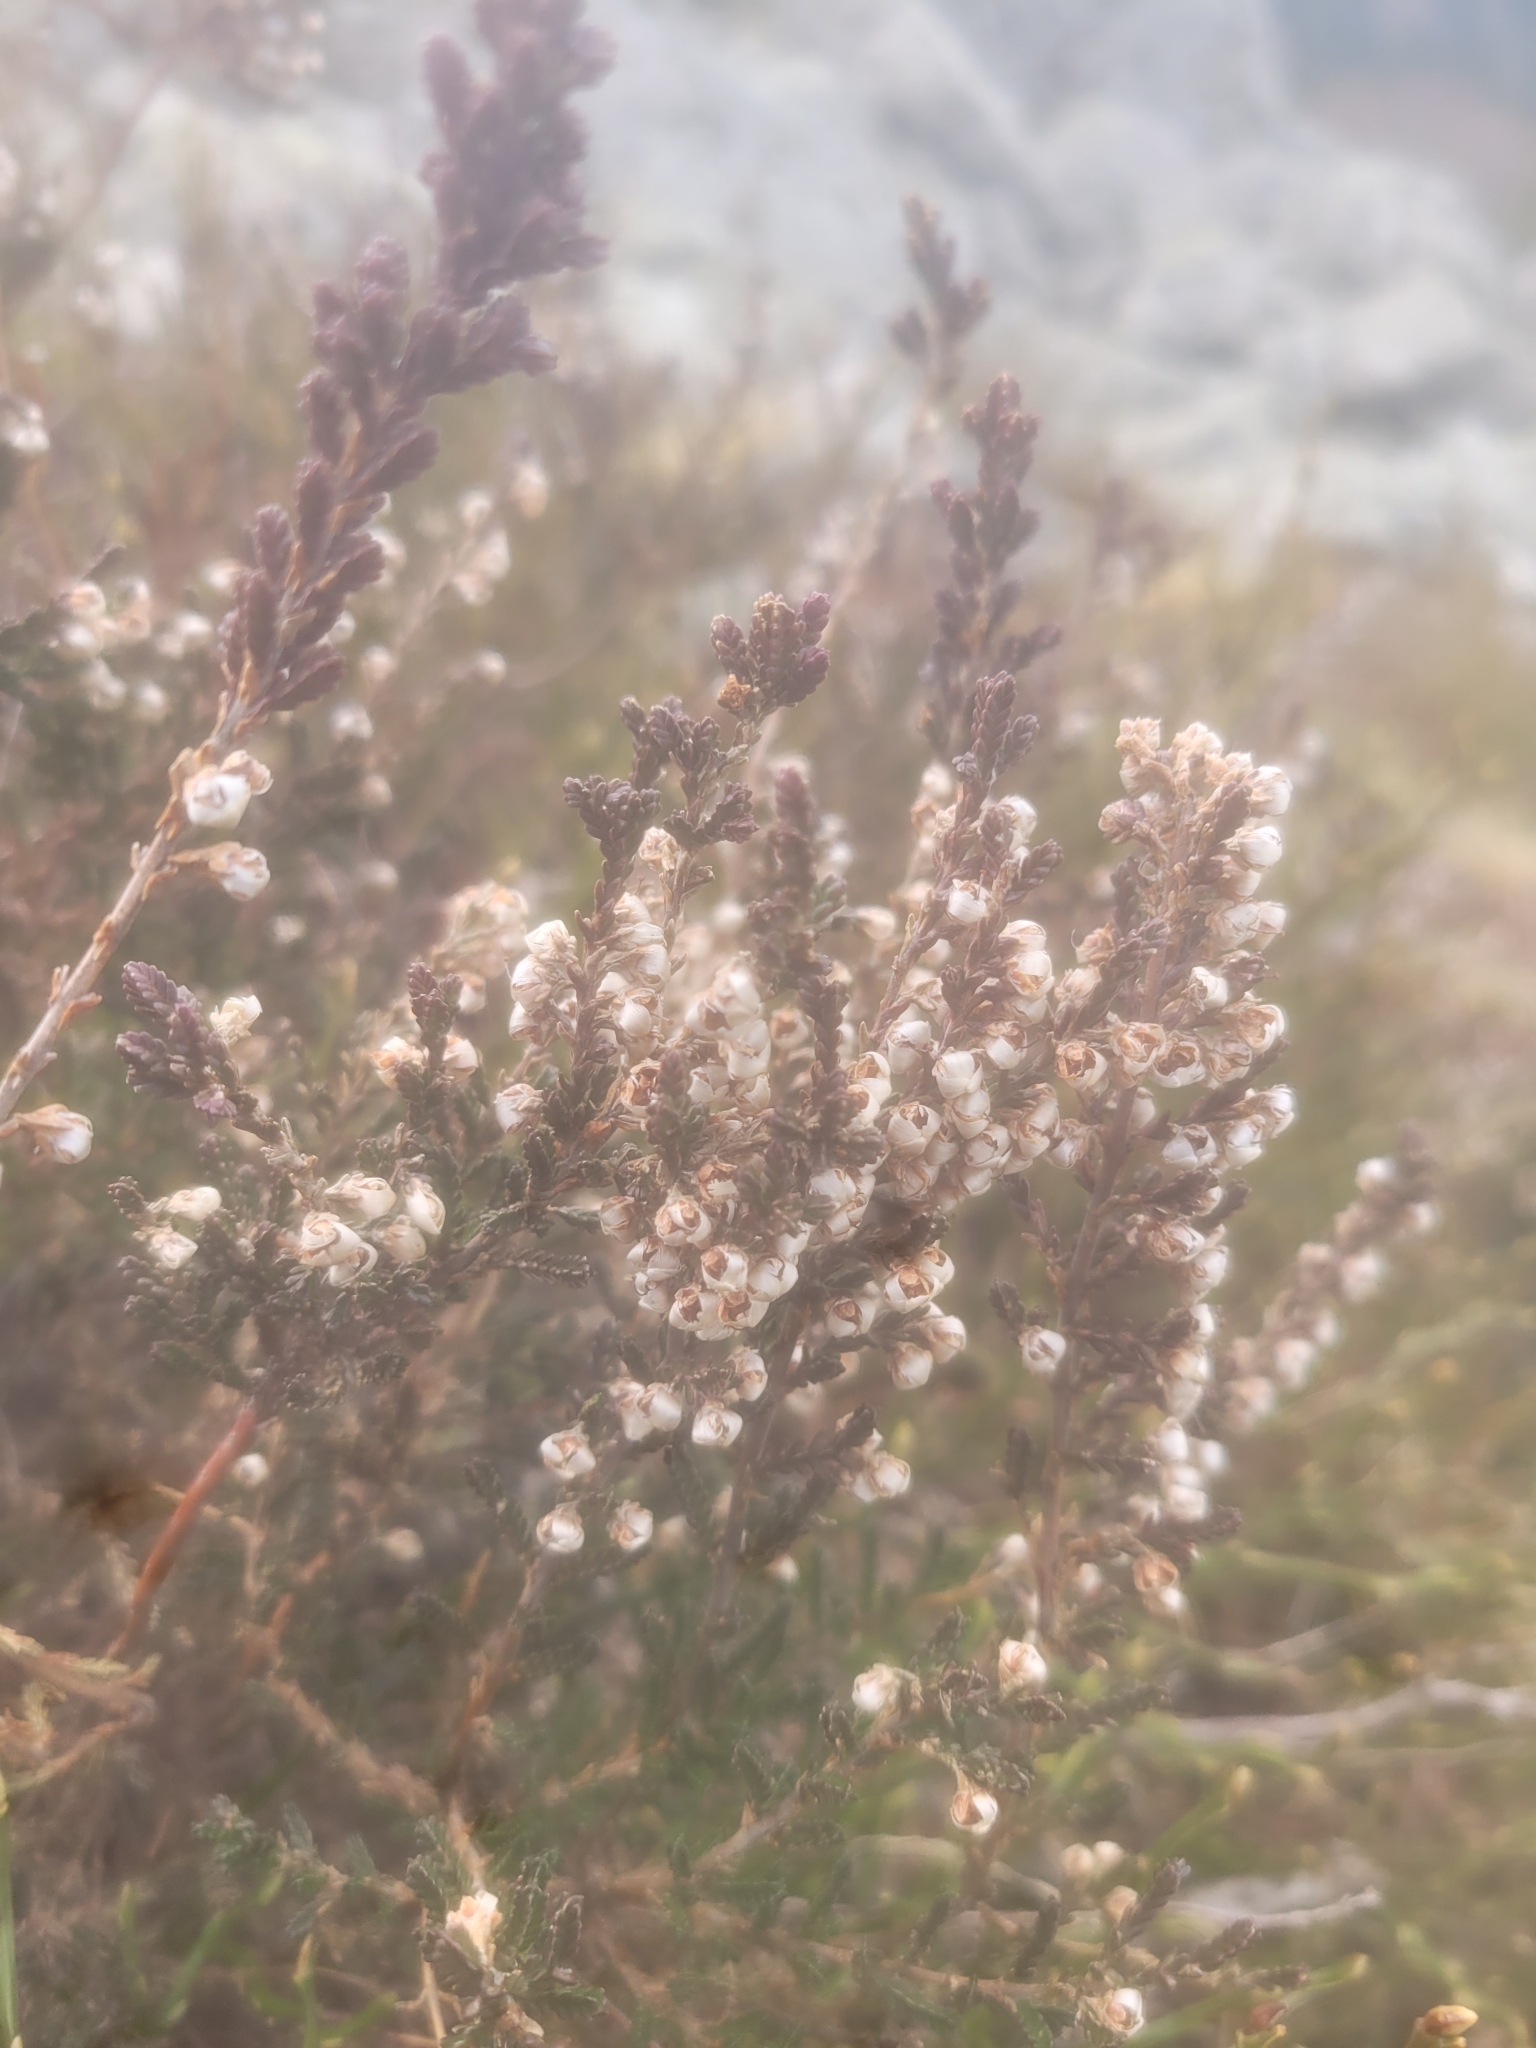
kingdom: Plantae
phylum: Tracheophyta
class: Magnoliopsida
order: Ericales
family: Ericaceae
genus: Calluna
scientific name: Calluna vulgaris
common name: Heather
